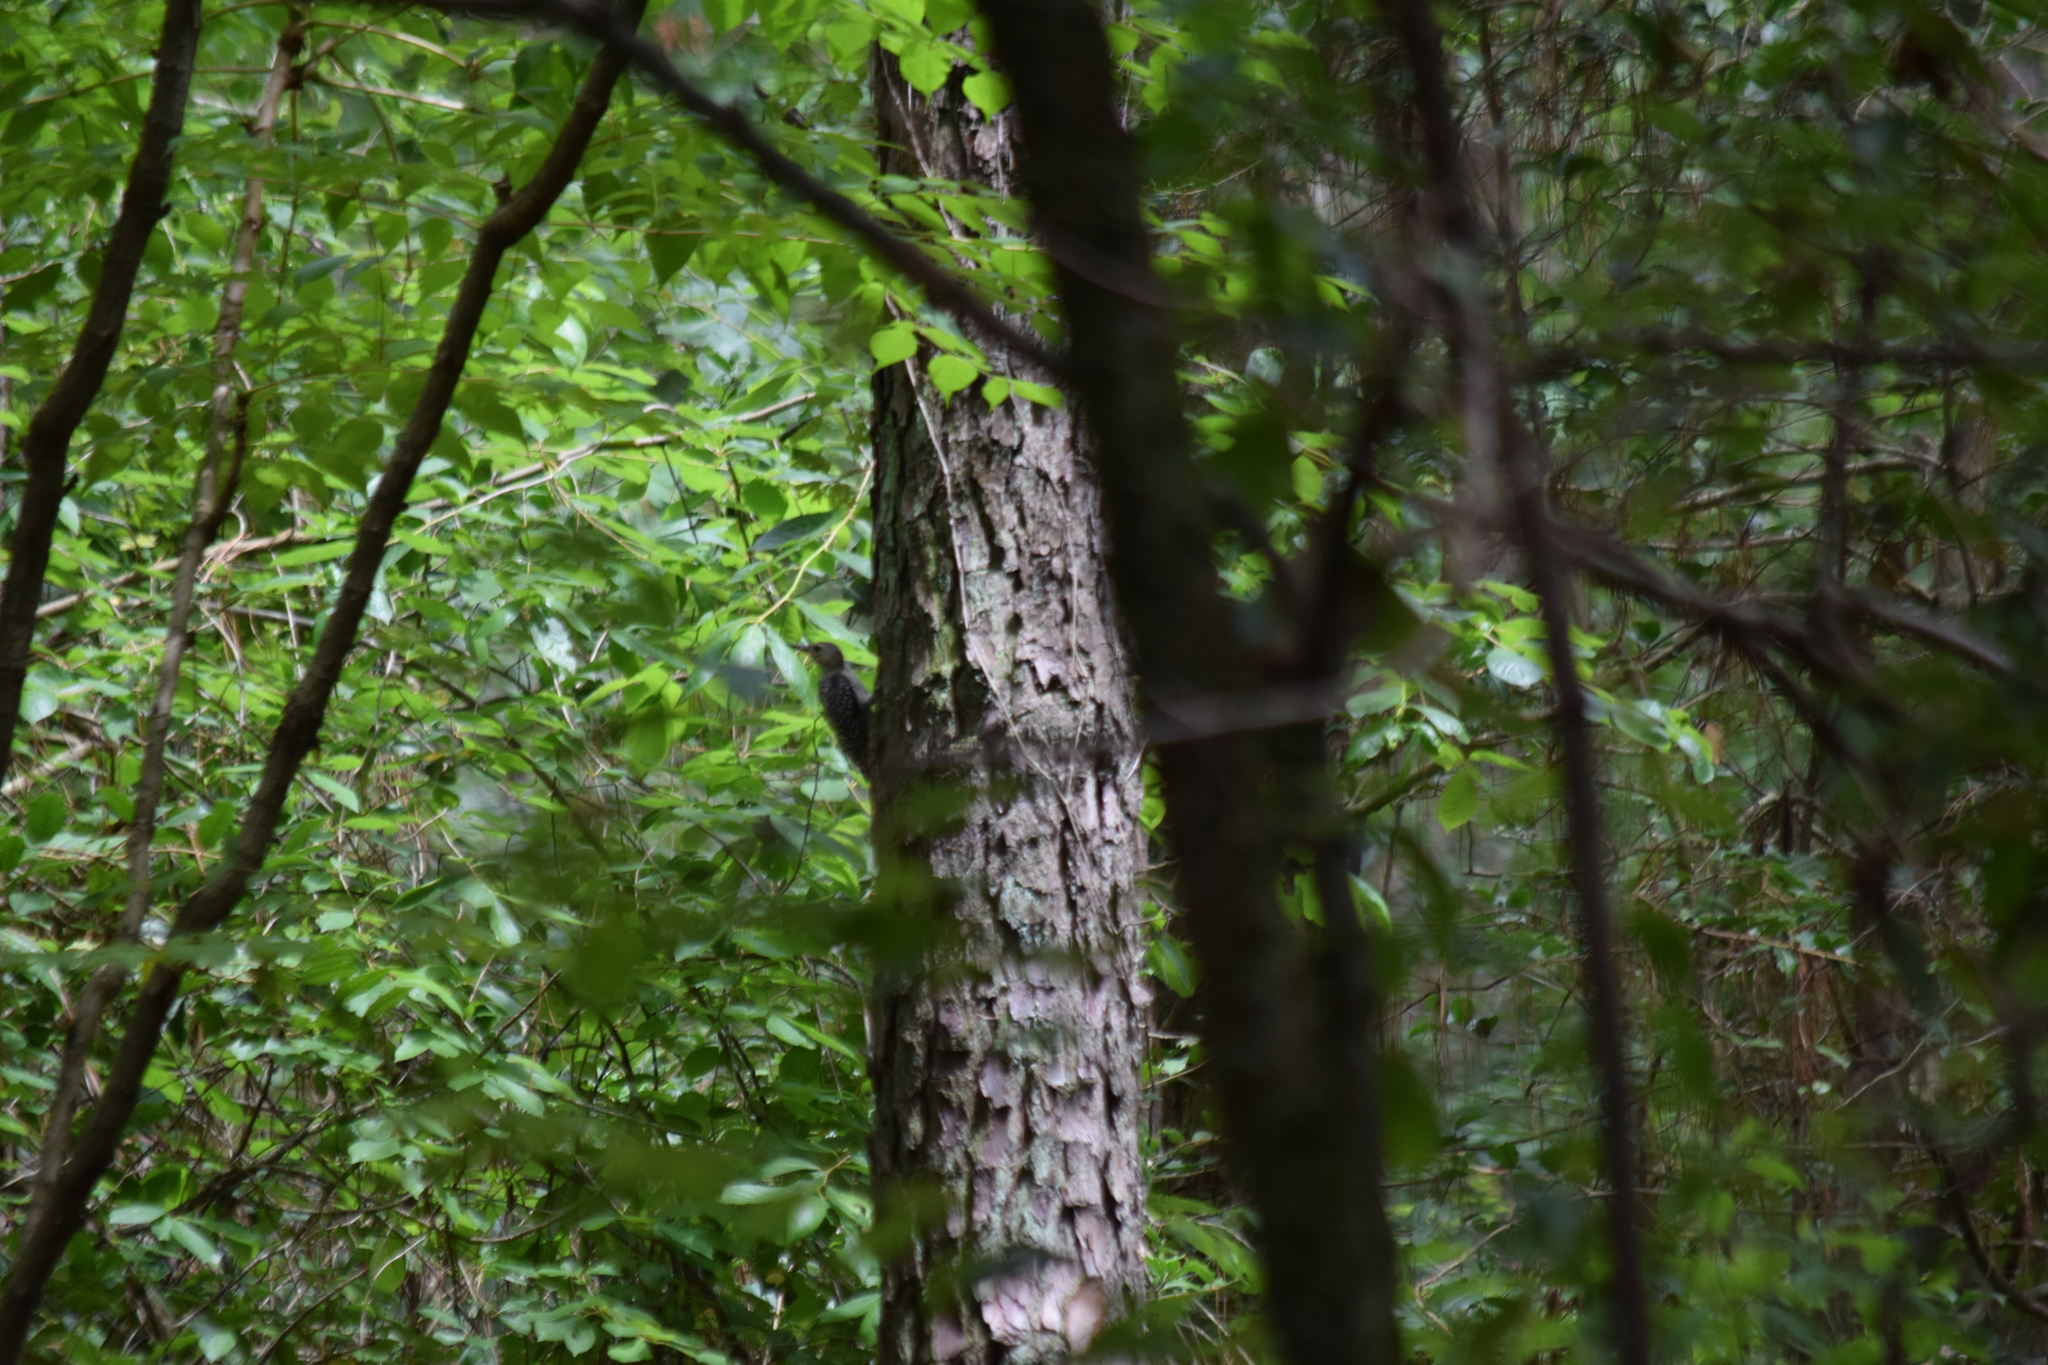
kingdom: Animalia
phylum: Chordata
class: Aves
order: Piciformes
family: Picidae
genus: Melanerpes
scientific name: Melanerpes carolinus
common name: Red-bellied woodpecker
